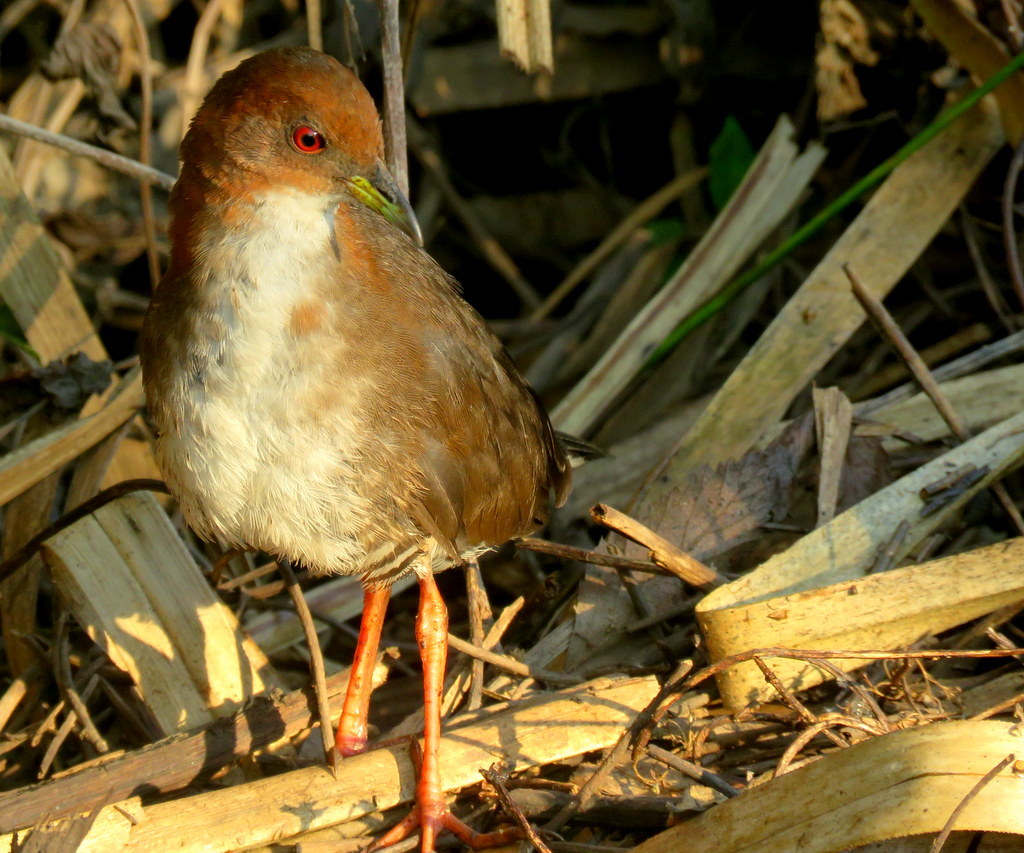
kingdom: Animalia
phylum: Chordata
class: Aves
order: Gruiformes
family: Rallidae
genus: Laterallus
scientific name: Laterallus leucopyrrhus
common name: Red-and-white crake
